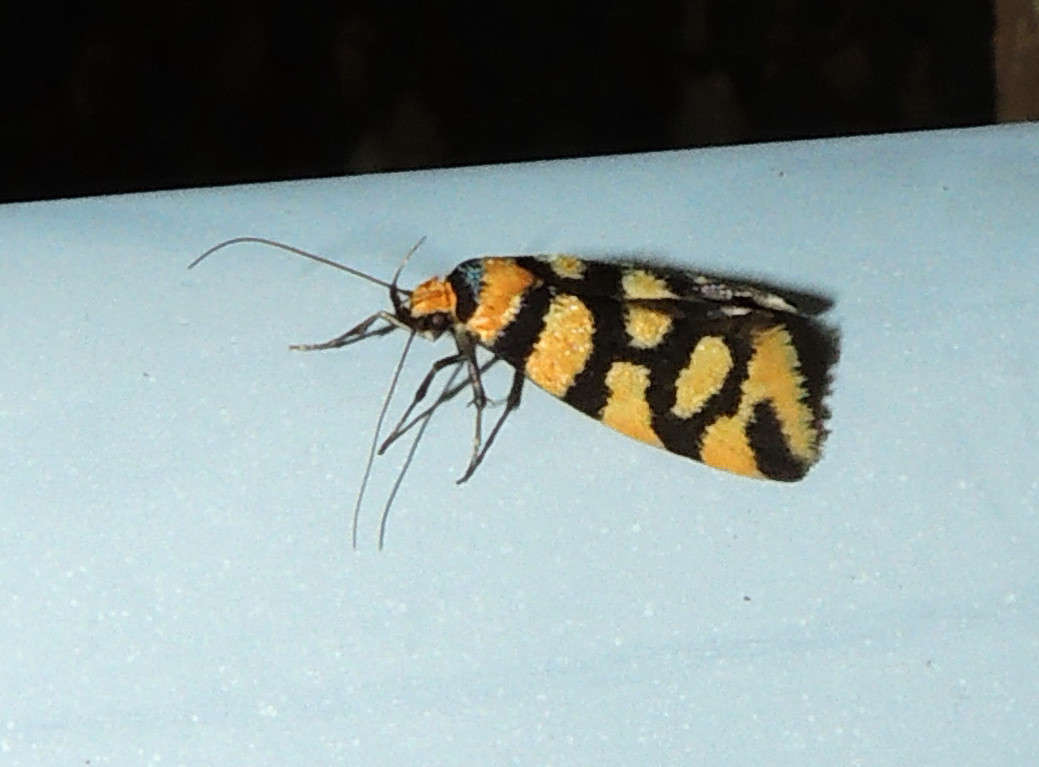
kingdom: Animalia
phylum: Arthropoda
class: Insecta
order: Lepidoptera
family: Oecophoridae
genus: Tanyzancla
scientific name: Tanyzancla argutella
